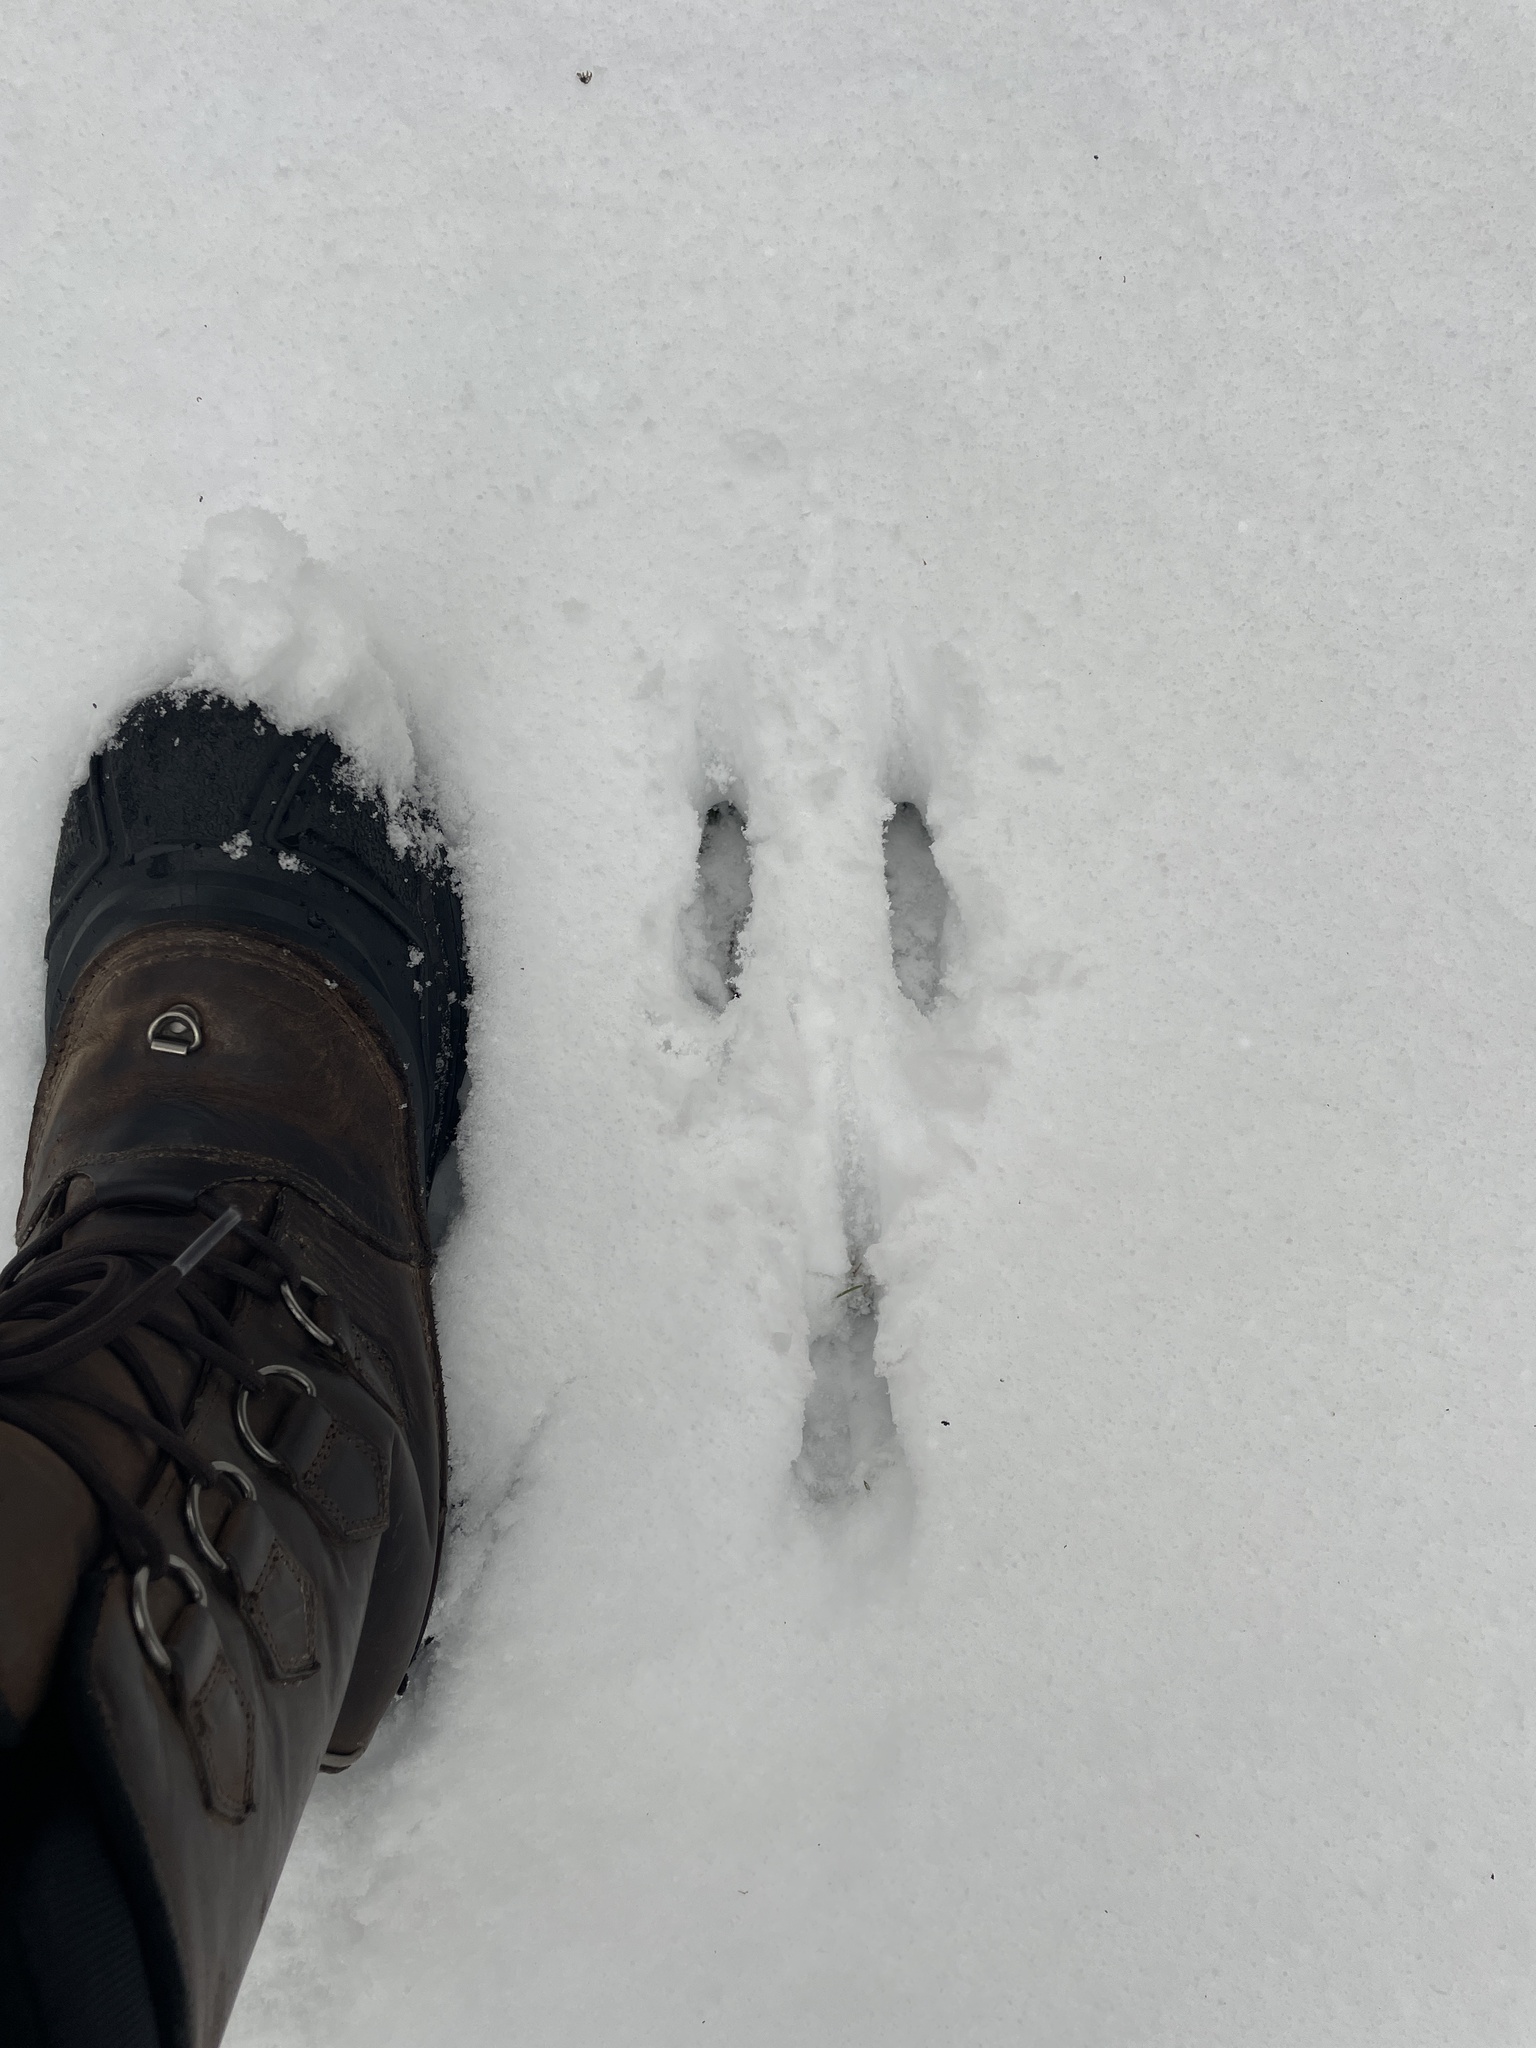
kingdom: Animalia
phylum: Chordata
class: Mammalia
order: Lagomorpha
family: Leporidae
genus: Sylvilagus
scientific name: Sylvilagus floridanus
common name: Eastern cottontail
